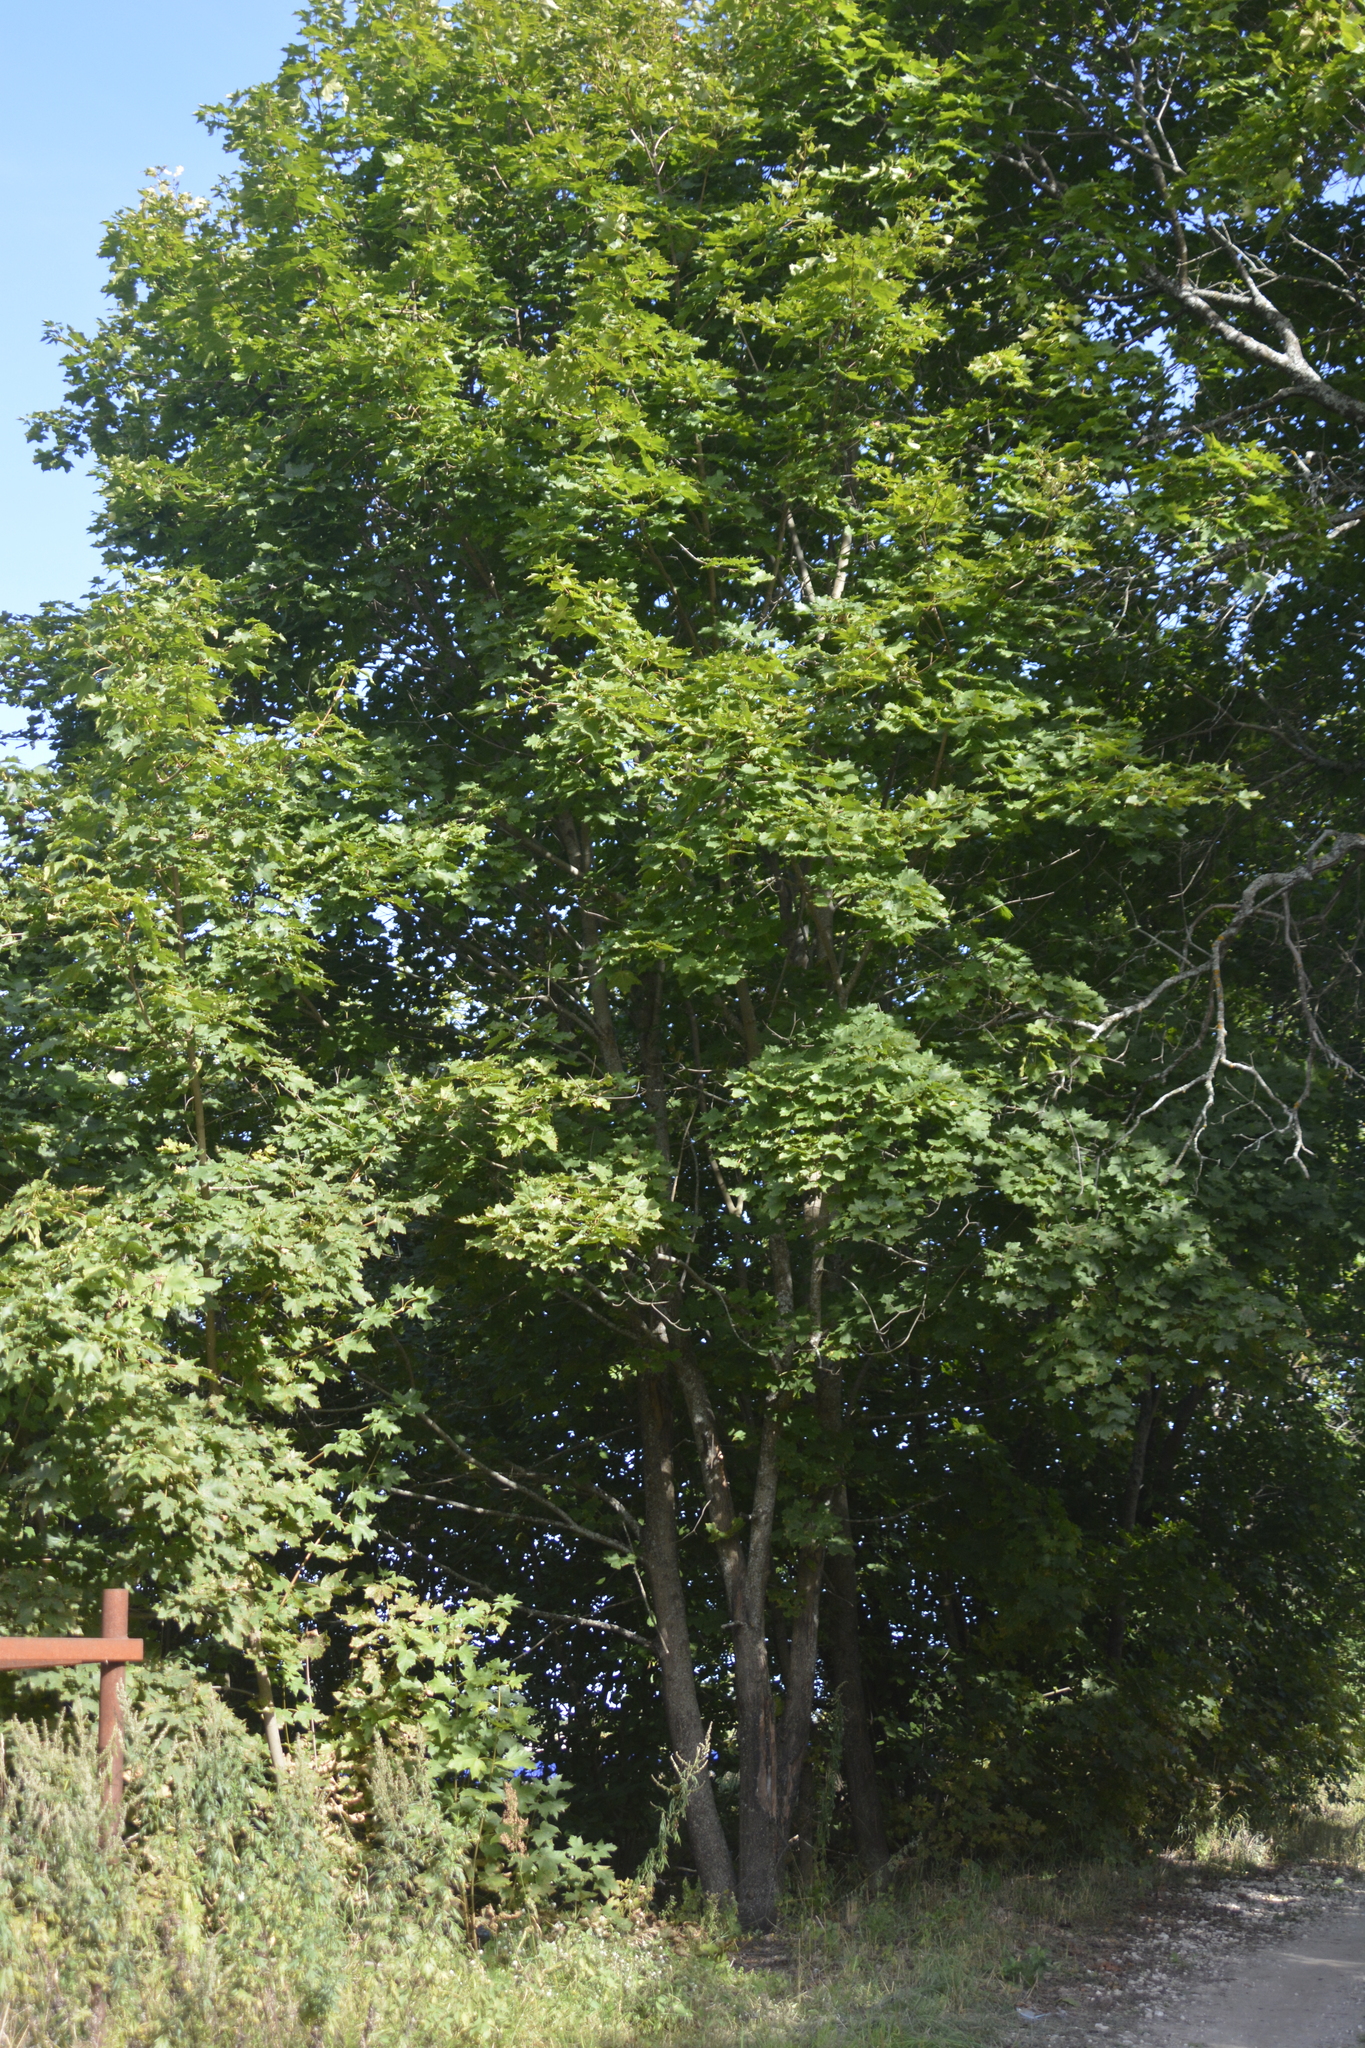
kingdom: Plantae
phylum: Tracheophyta
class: Magnoliopsida
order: Sapindales
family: Sapindaceae
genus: Acer
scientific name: Acer platanoides
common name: Norway maple
